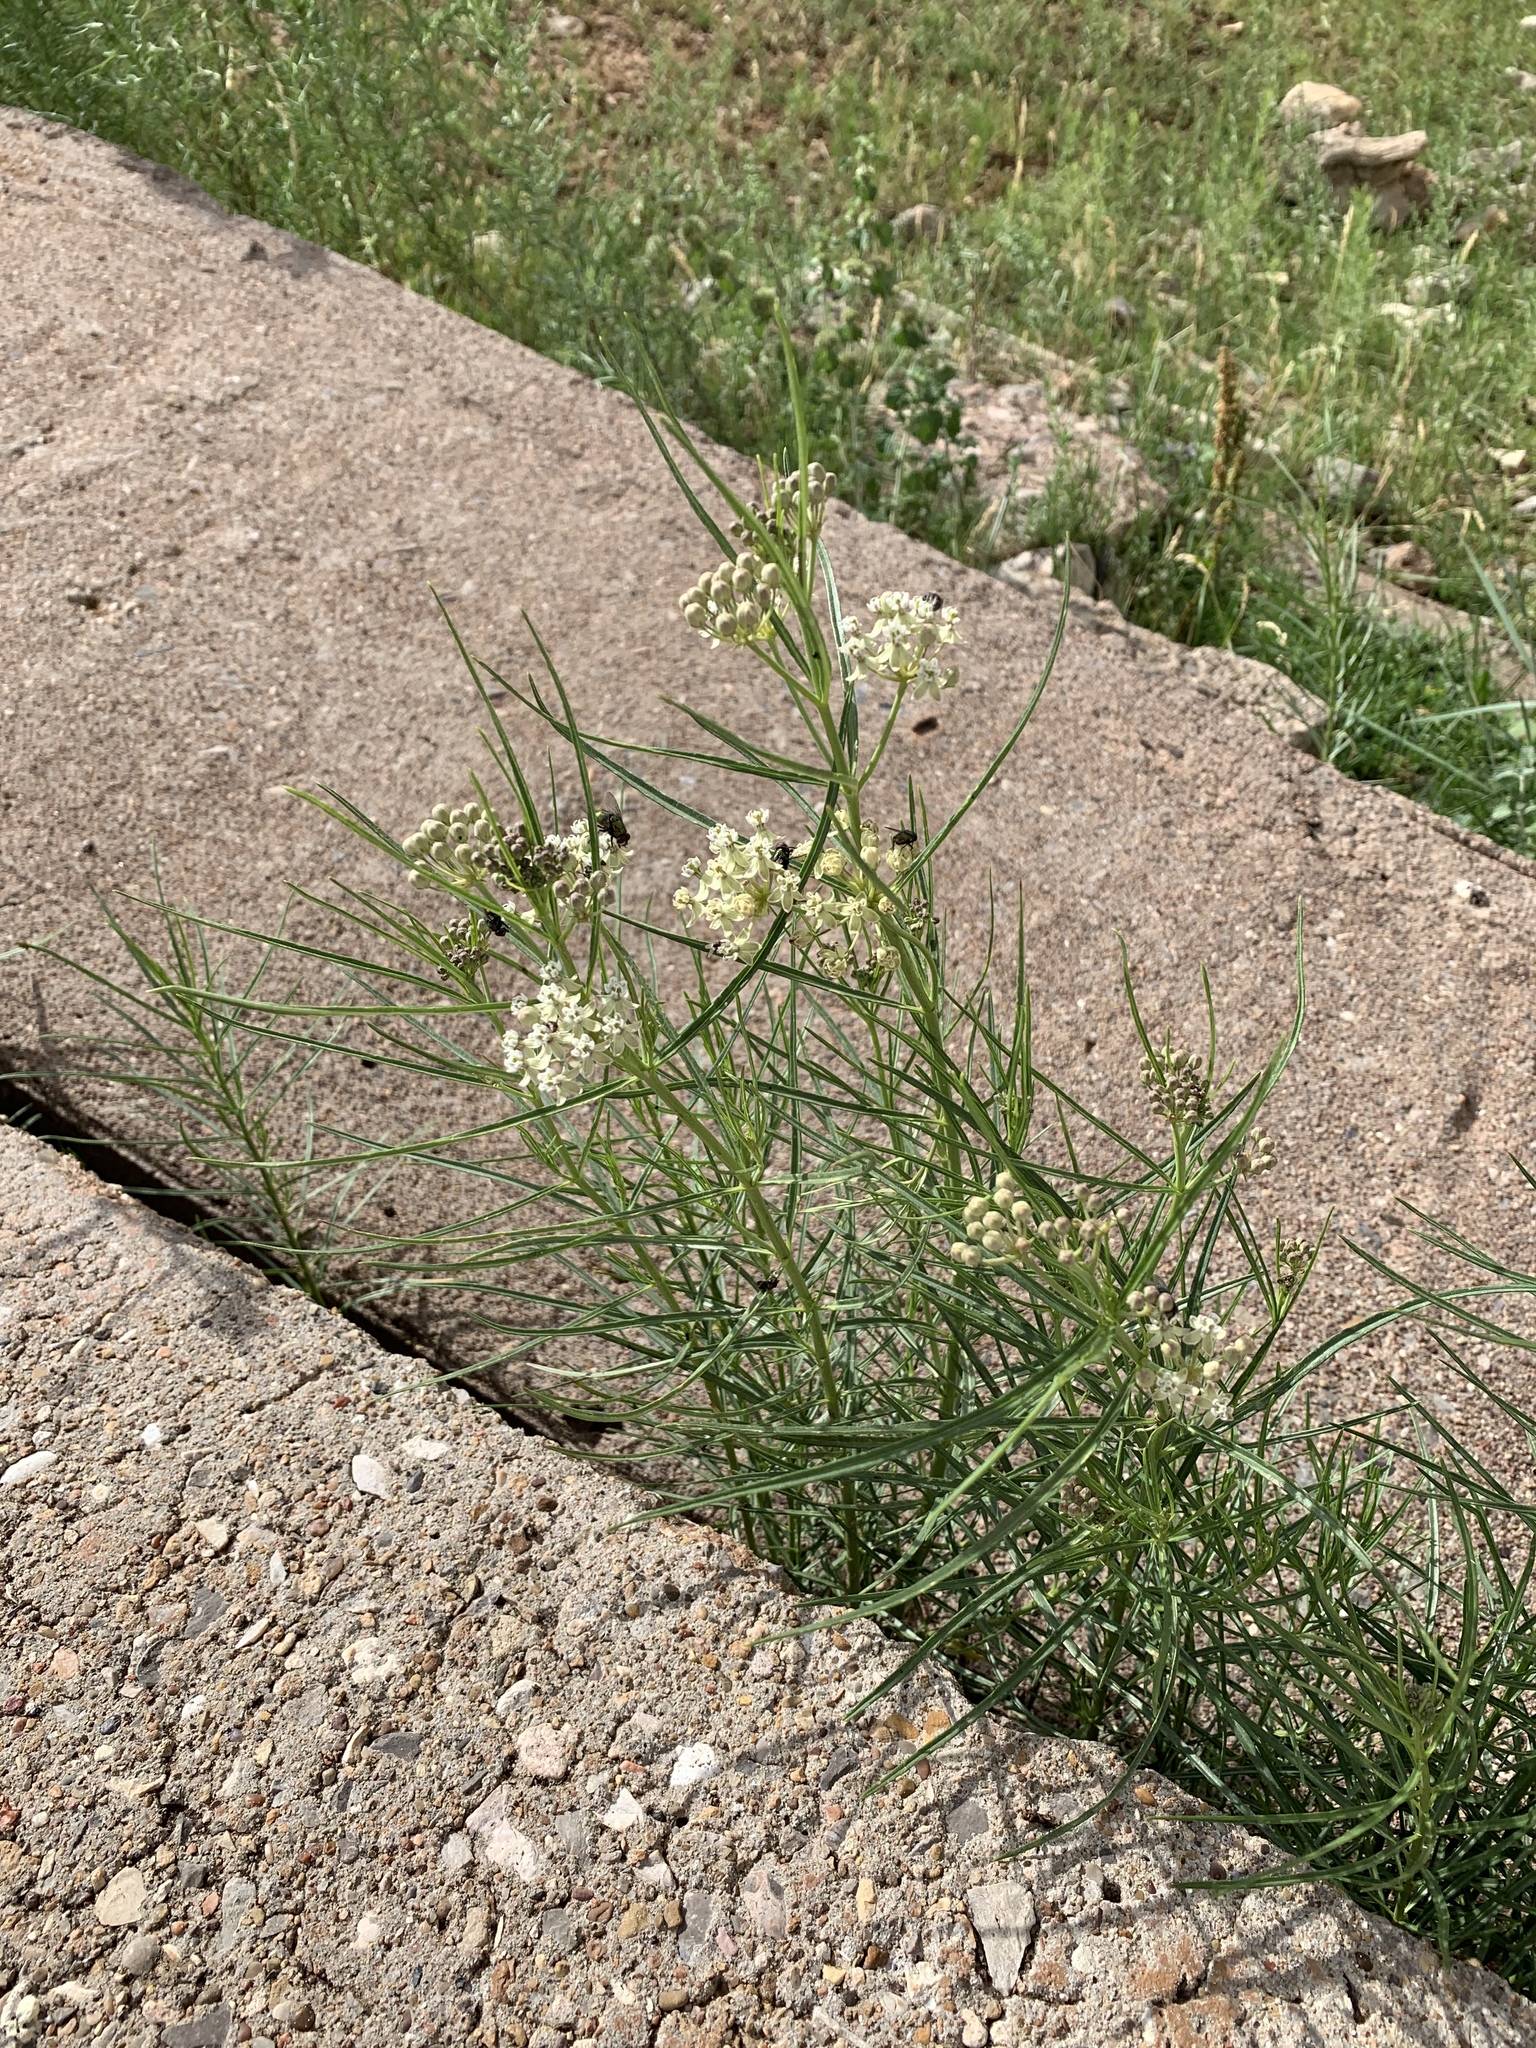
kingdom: Plantae
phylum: Tracheophyta
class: Magnoliopsida
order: Gentianales
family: Apocynaceae
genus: Asclepias
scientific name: Asclepias subverticillata
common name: Horsetail milkweed
